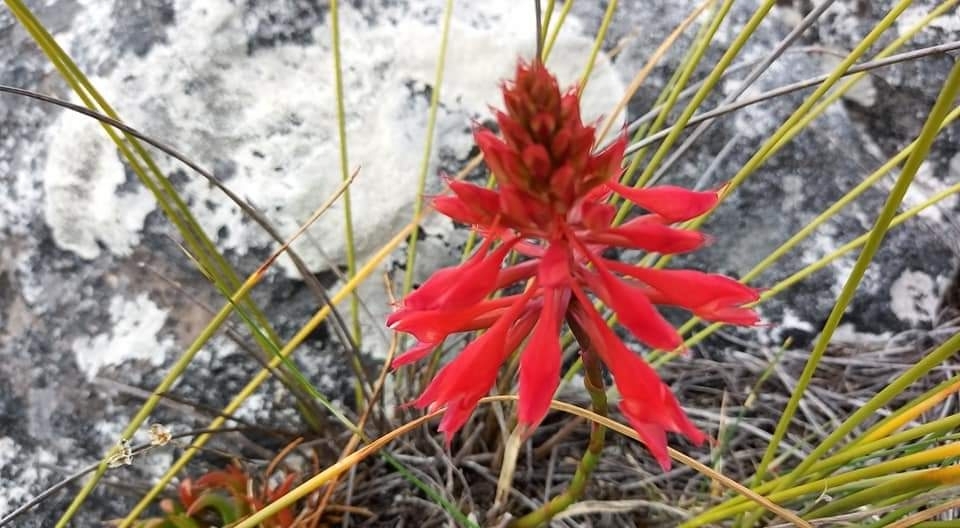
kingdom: Plantae
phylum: Tracheophyta
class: Liliopsida
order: Asparagales
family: Orchidaceae
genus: Disa
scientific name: Disa ferruginea
